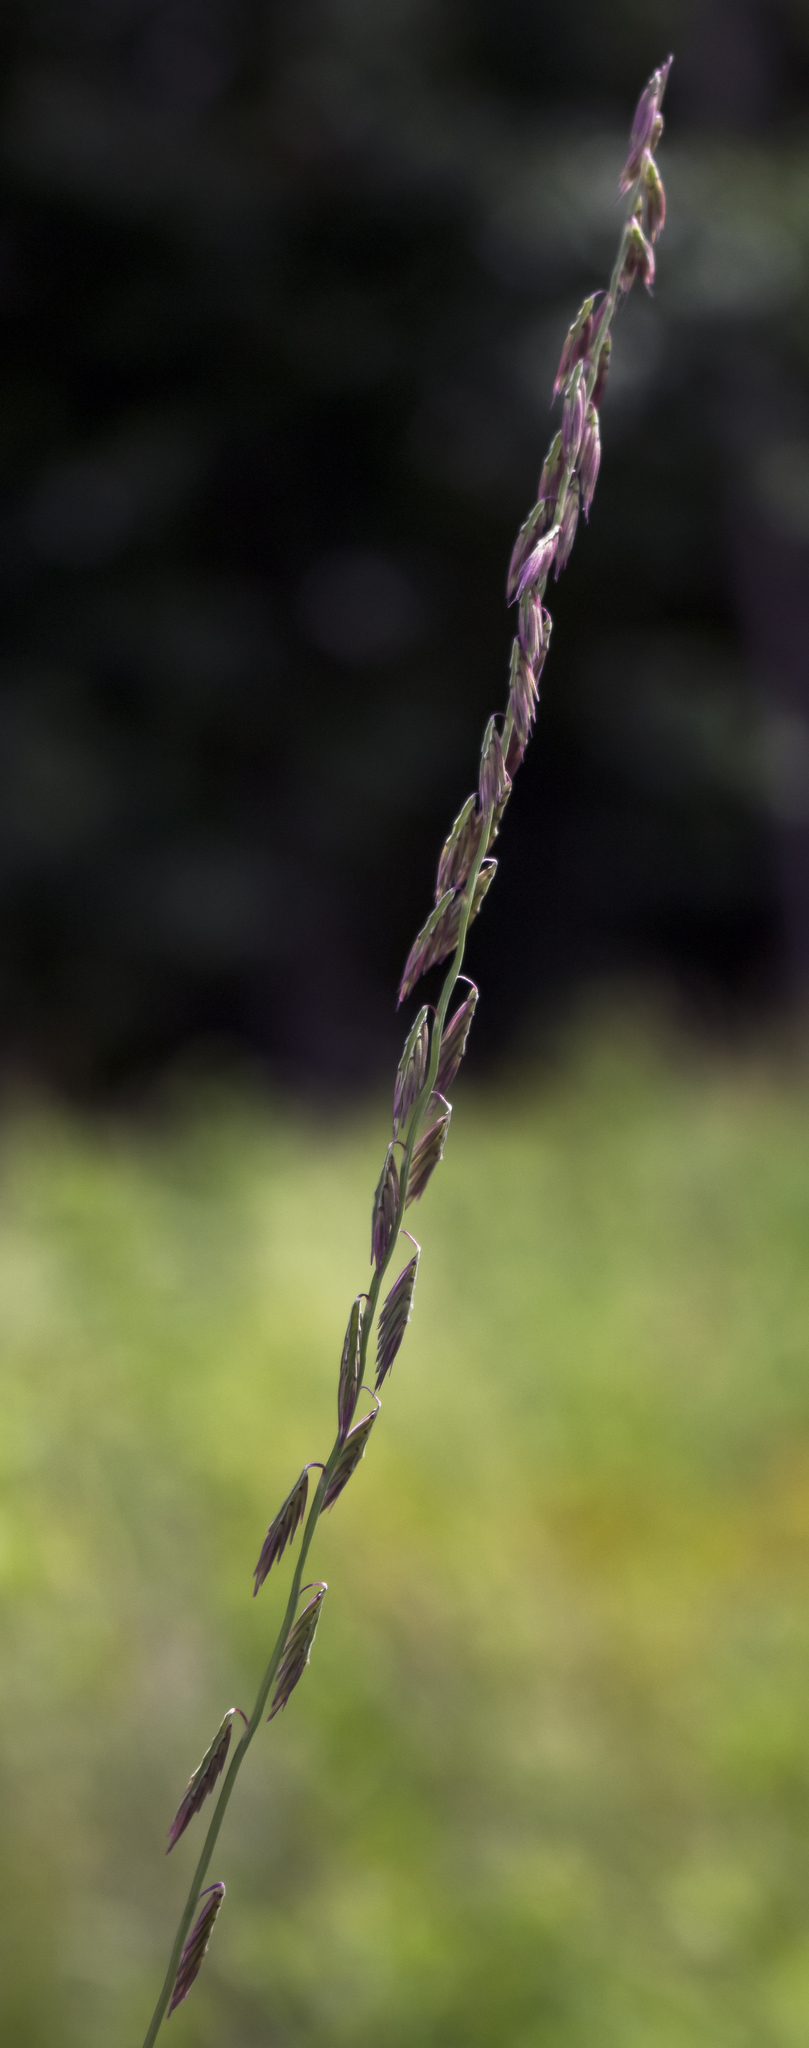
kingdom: Plantae
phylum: Tracheophyta
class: Liliopsida
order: Poales
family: Poaceae
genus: Bouteloua
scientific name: Bouteloua curtipendula
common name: Side-oats grama
